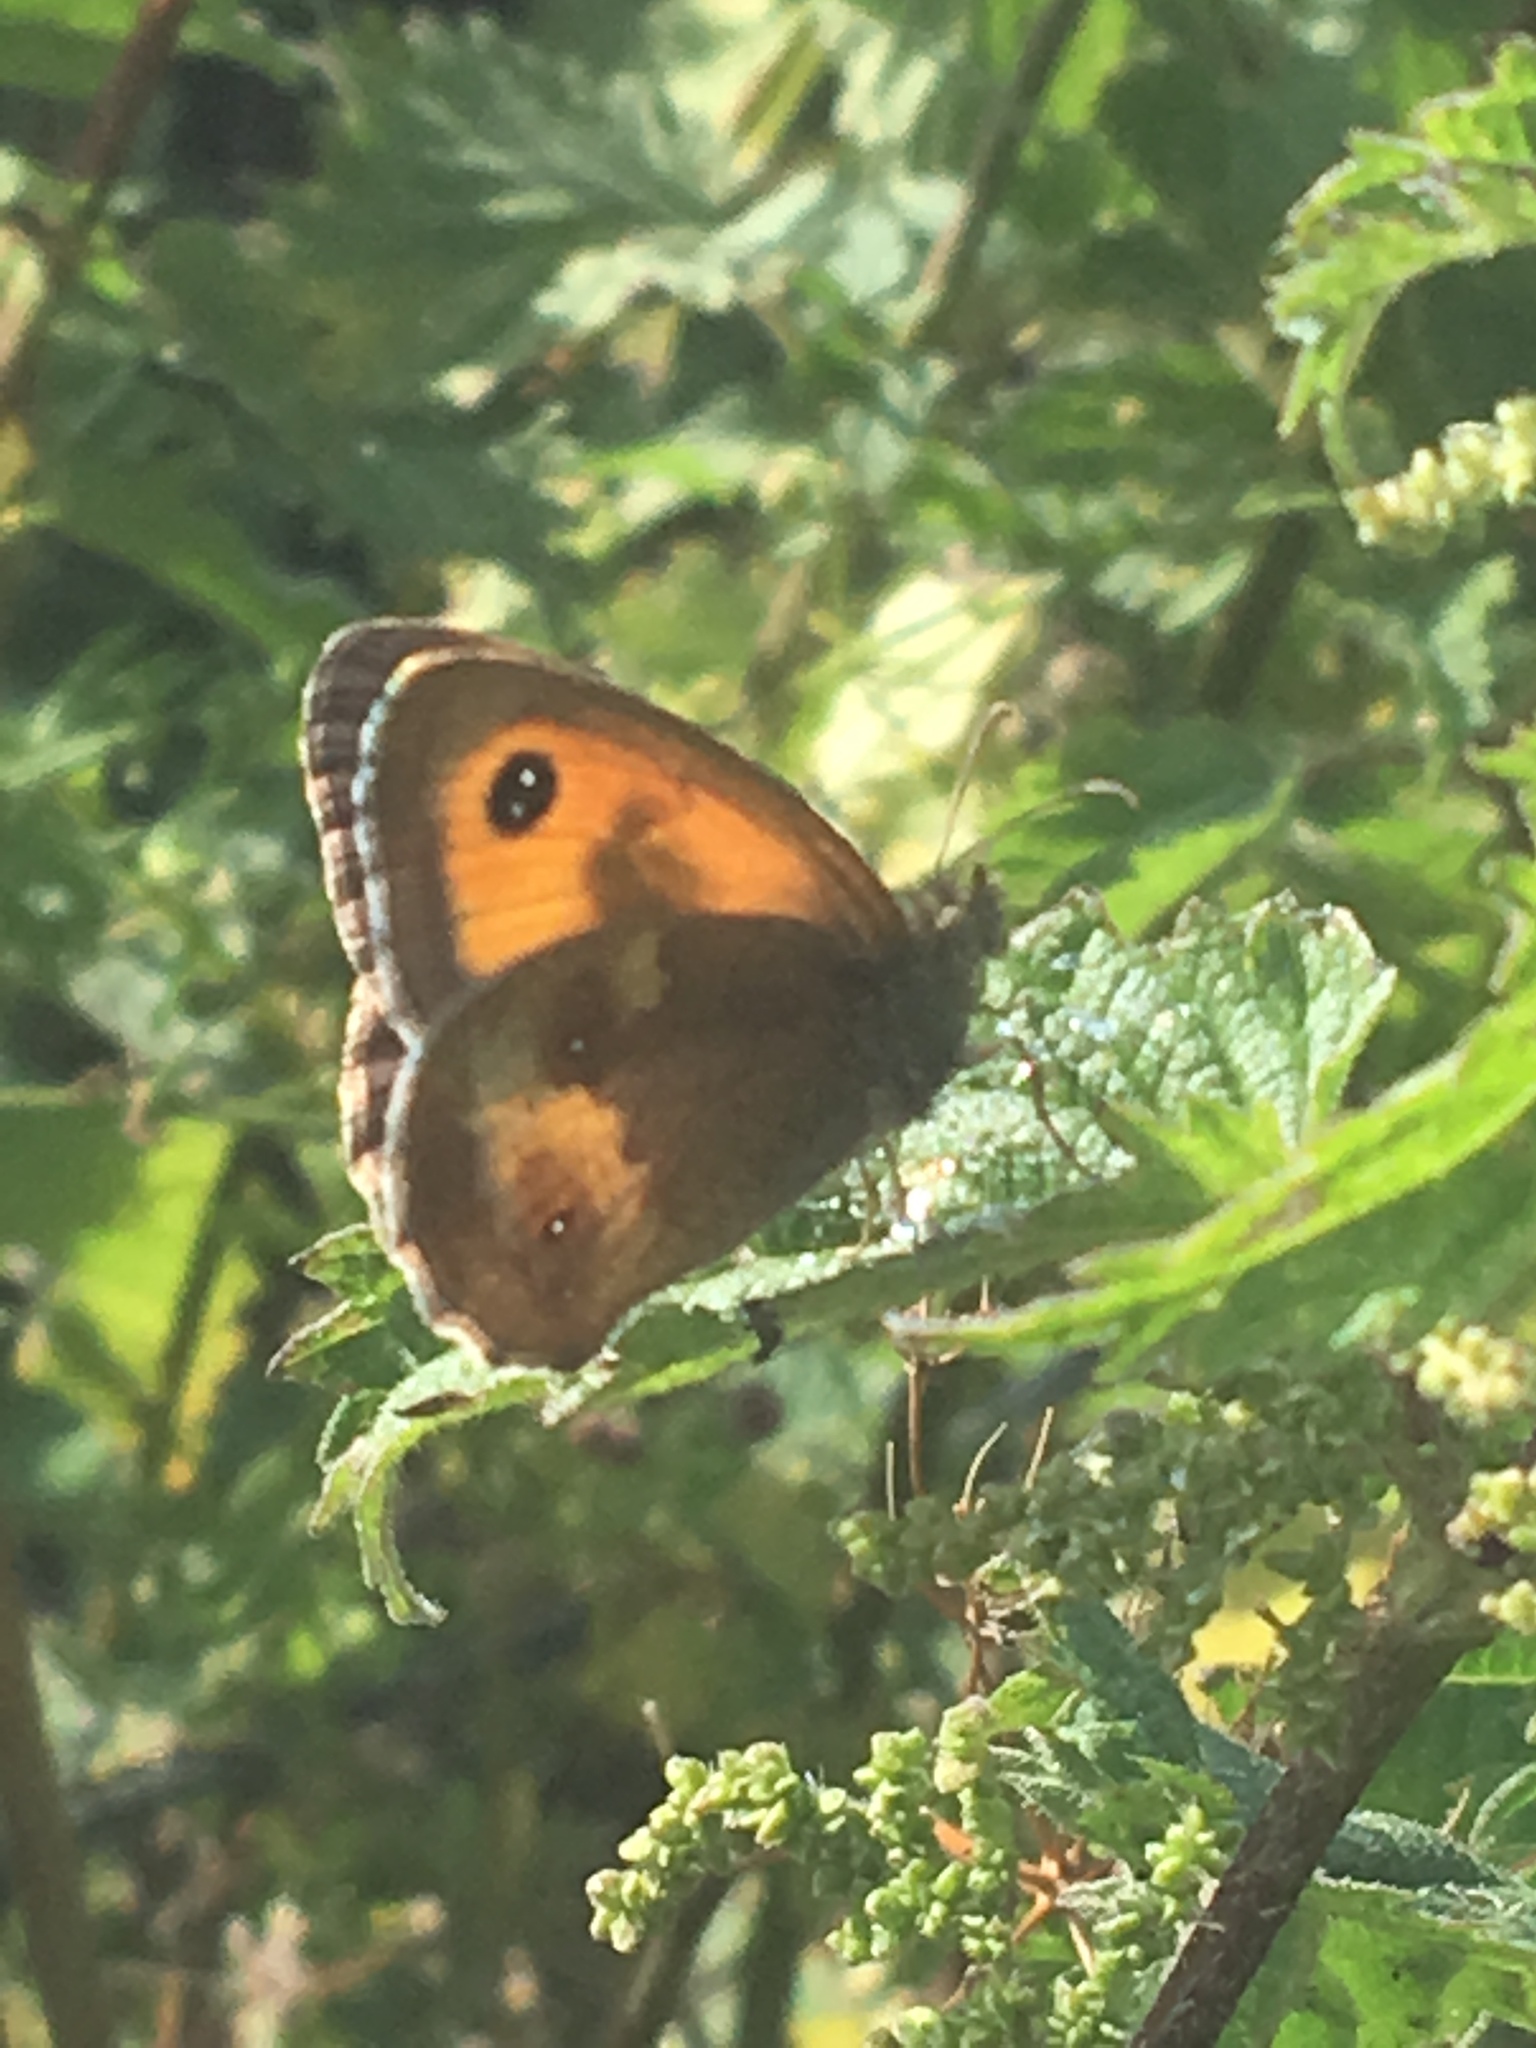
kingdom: Animalia
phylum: Arthropoda
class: Insecta
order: Lepidoptera
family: Nymphalidae
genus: Pyronia
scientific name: Pyronia tithonus
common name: Gatekeeper
